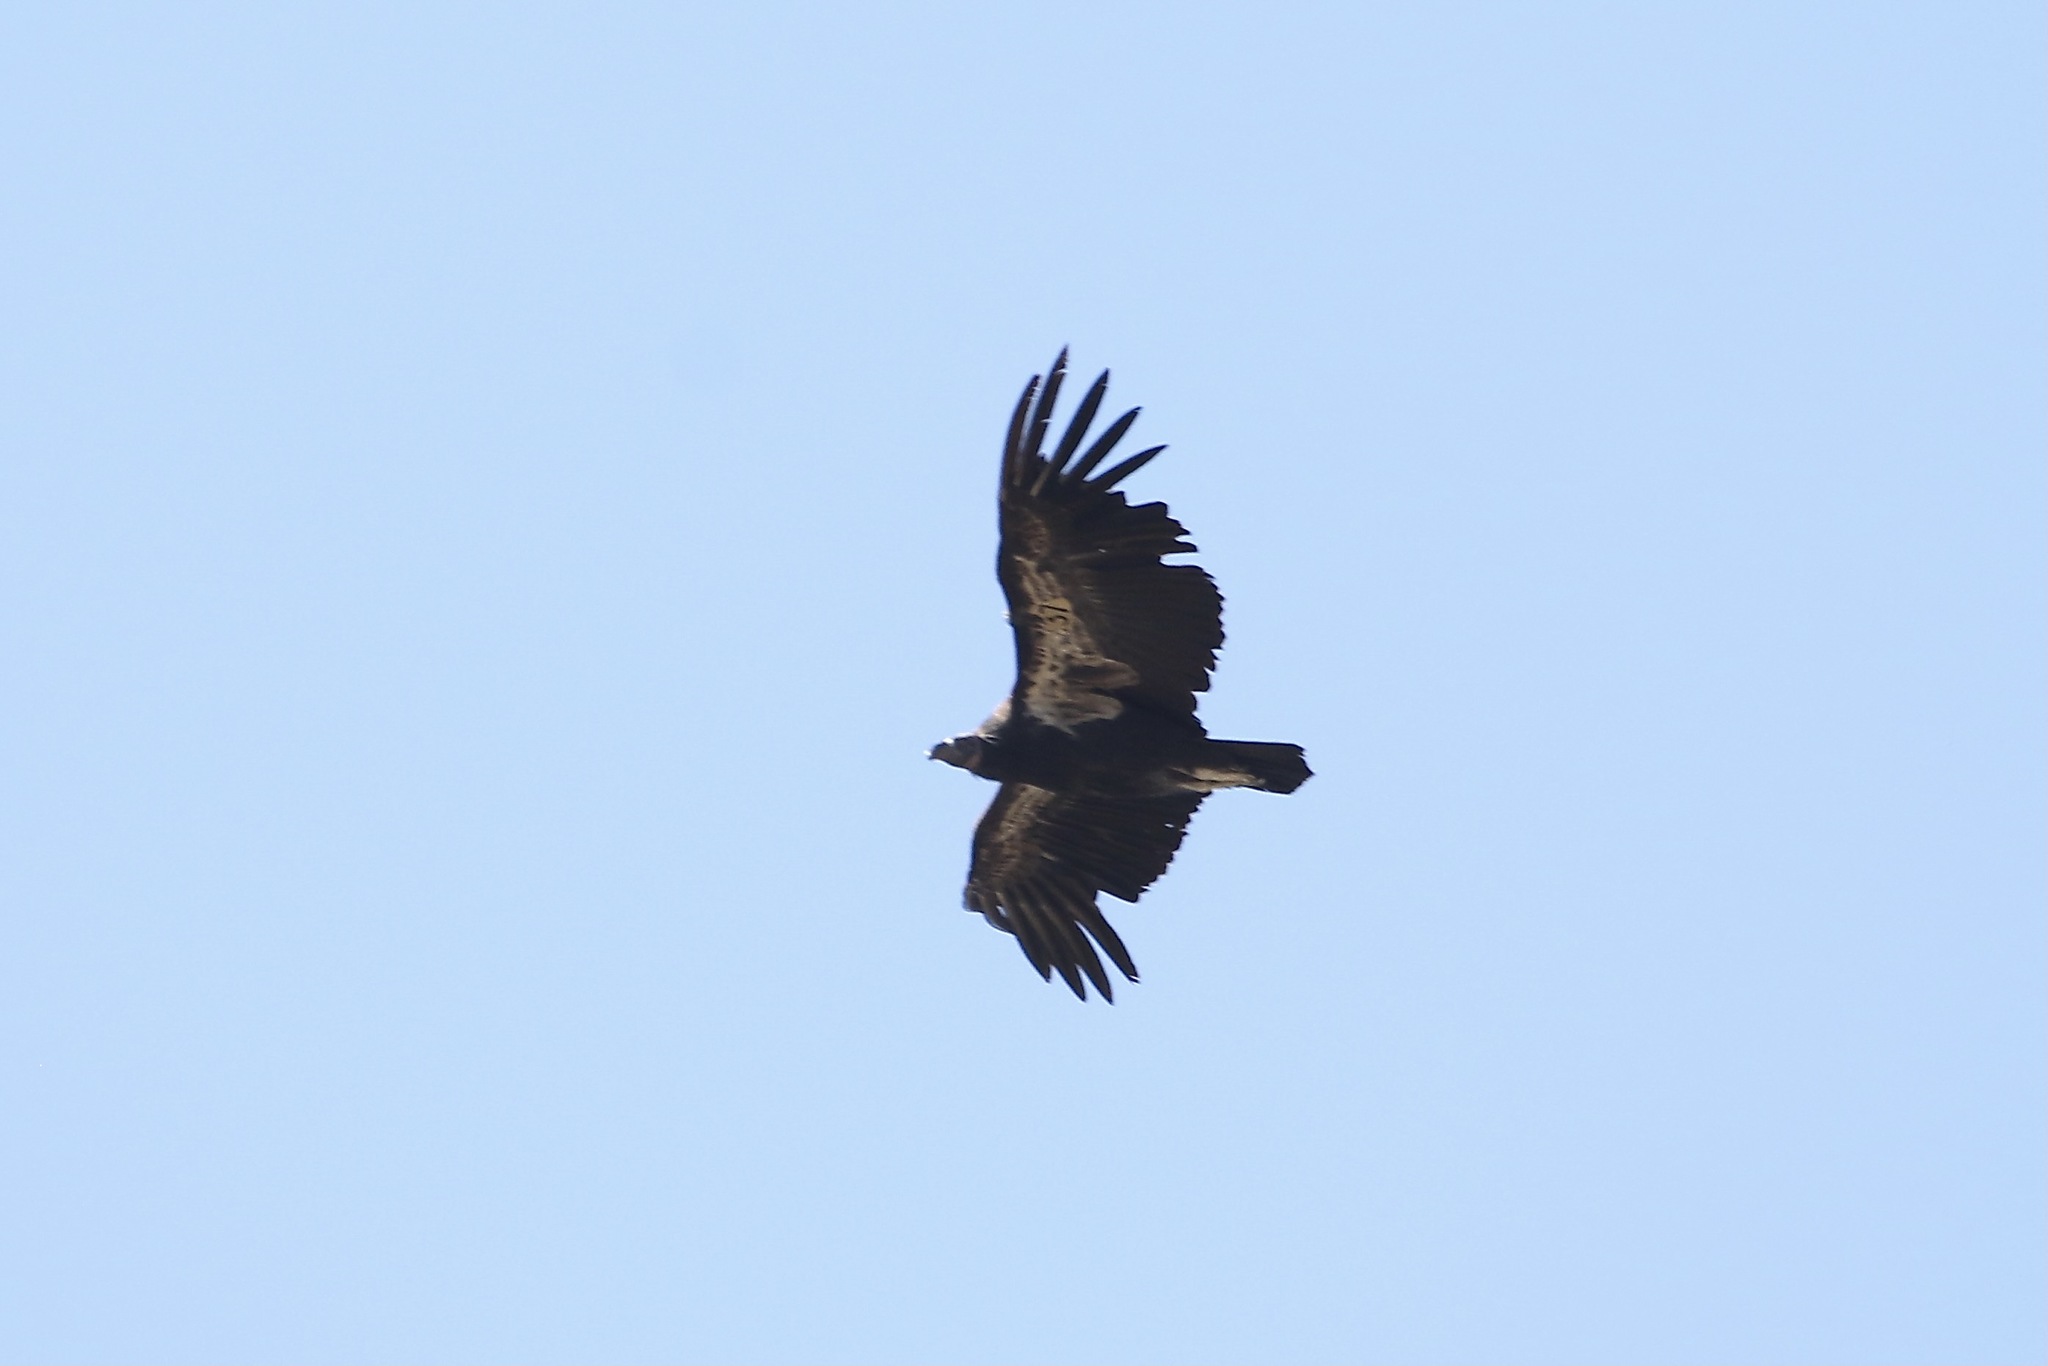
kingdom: Animalia
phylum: Chordata
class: Aves
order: Accipitriformes
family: Cathartidae
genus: Gymnogyps
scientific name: Gymnogyps californianus
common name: California condor
